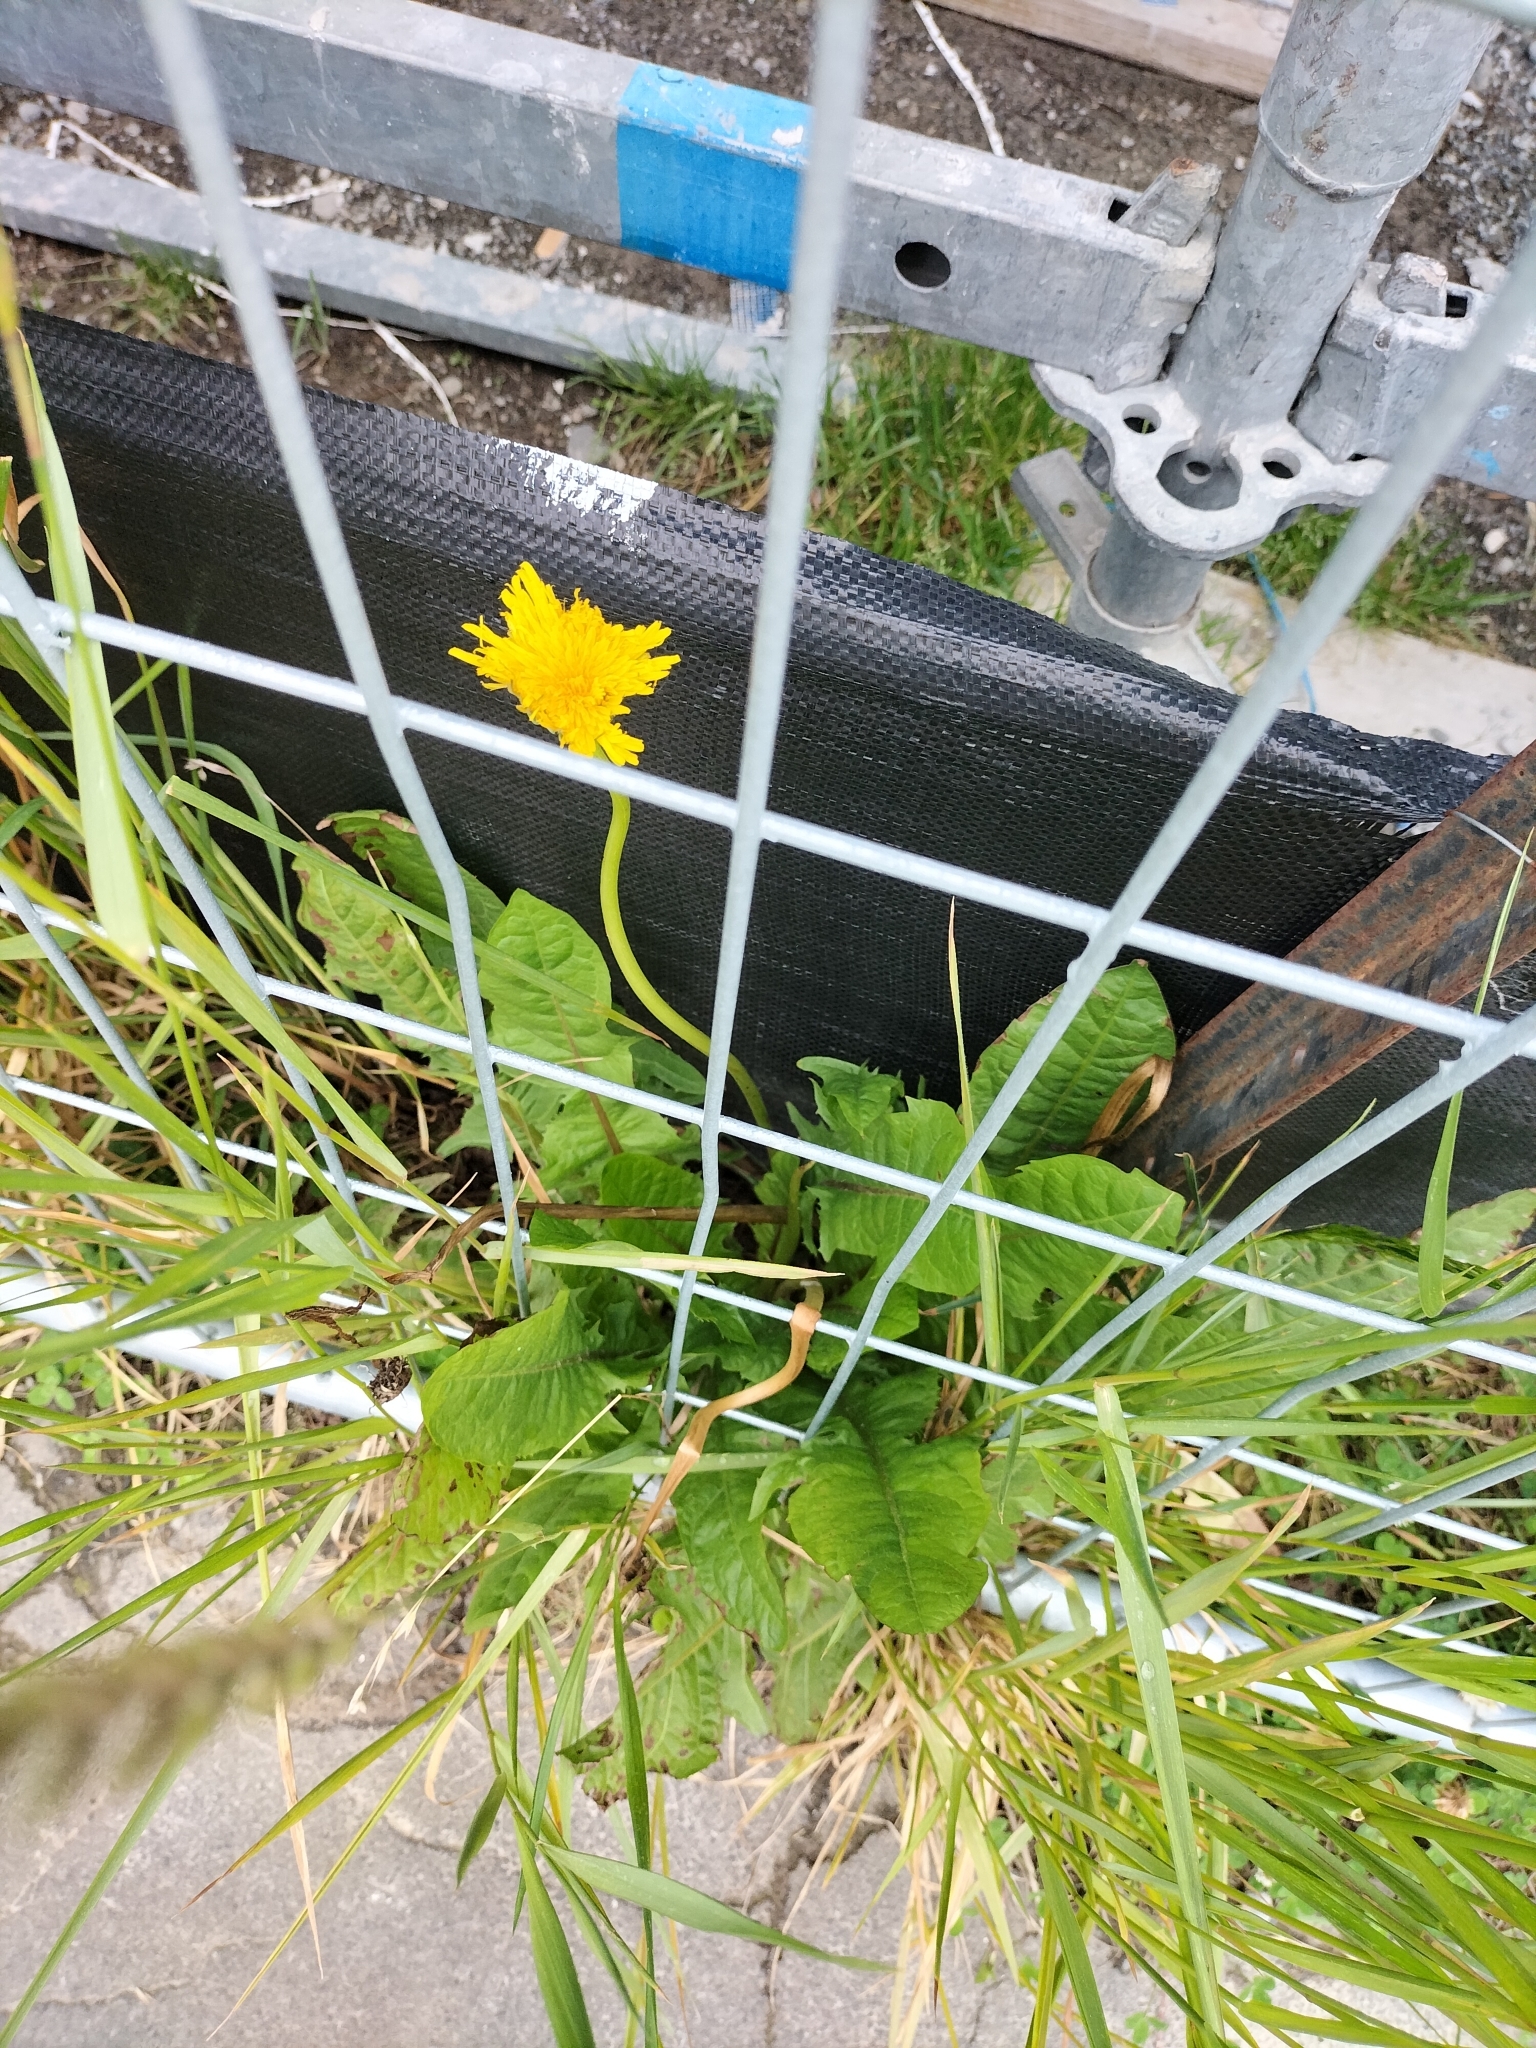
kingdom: Plantae
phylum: Tracheophyta
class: Magnoliopsida
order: Asterales
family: Asteraceae
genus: Taraxacum
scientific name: Taraxacum officinale
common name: Common dandelion
